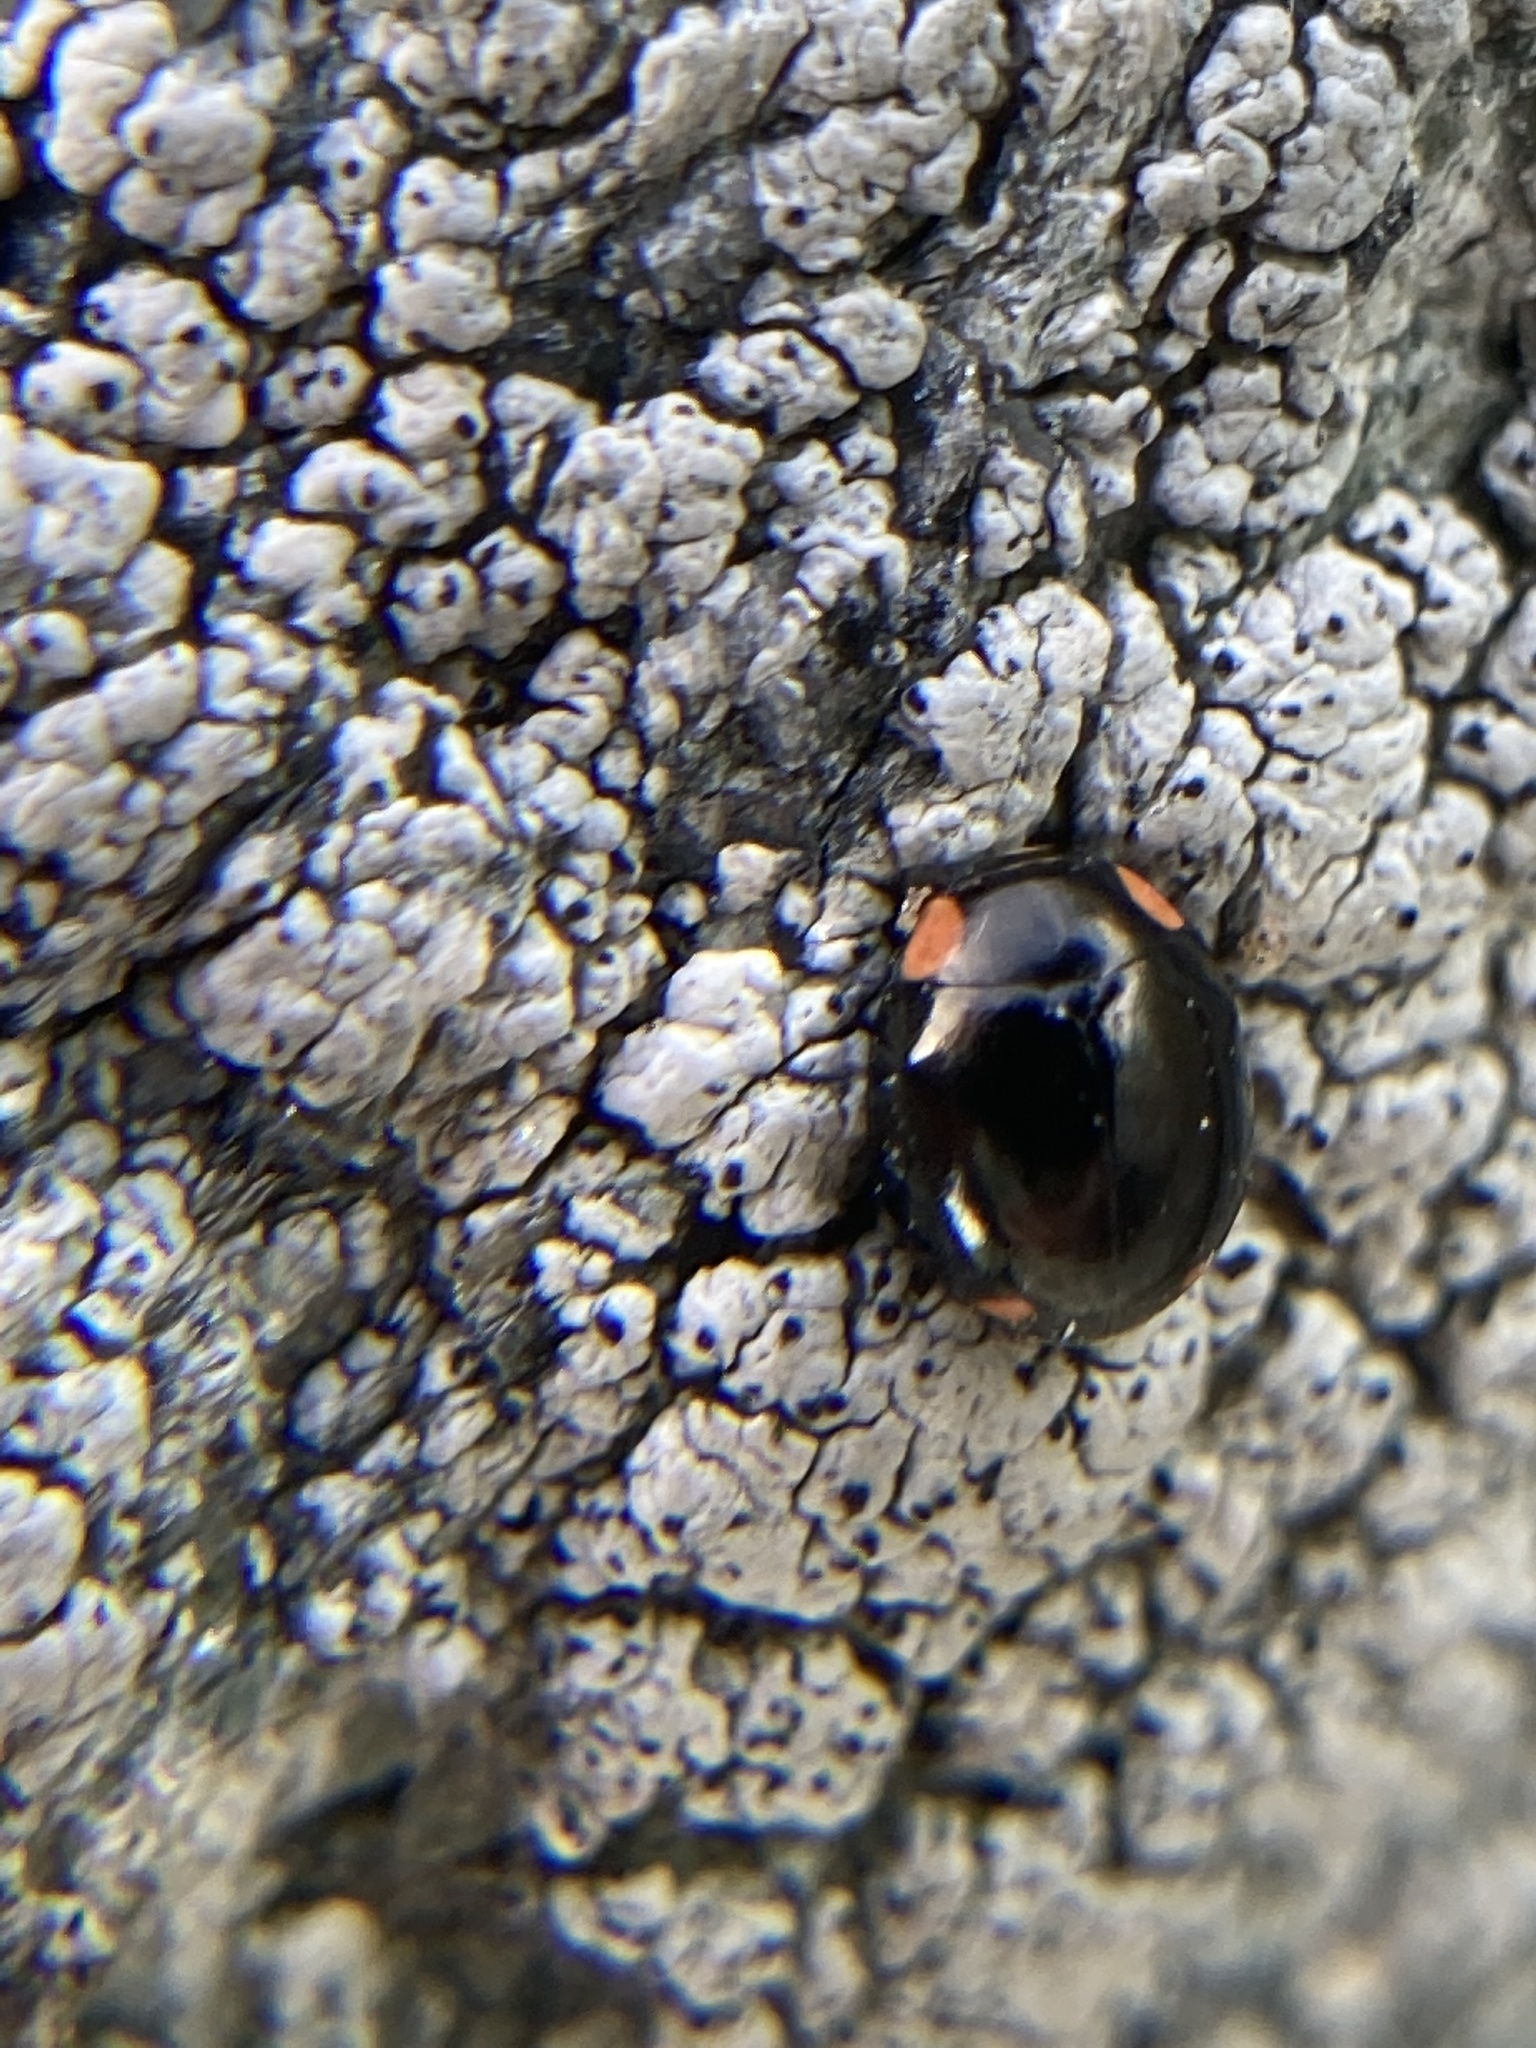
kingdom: Animalia
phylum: Arthropoda
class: Insecta
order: Coleoptera
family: Coccinellidae
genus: Hyperaspis
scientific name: Hyperaspis bigeminata
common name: Bigeminate sigil lady beetle
